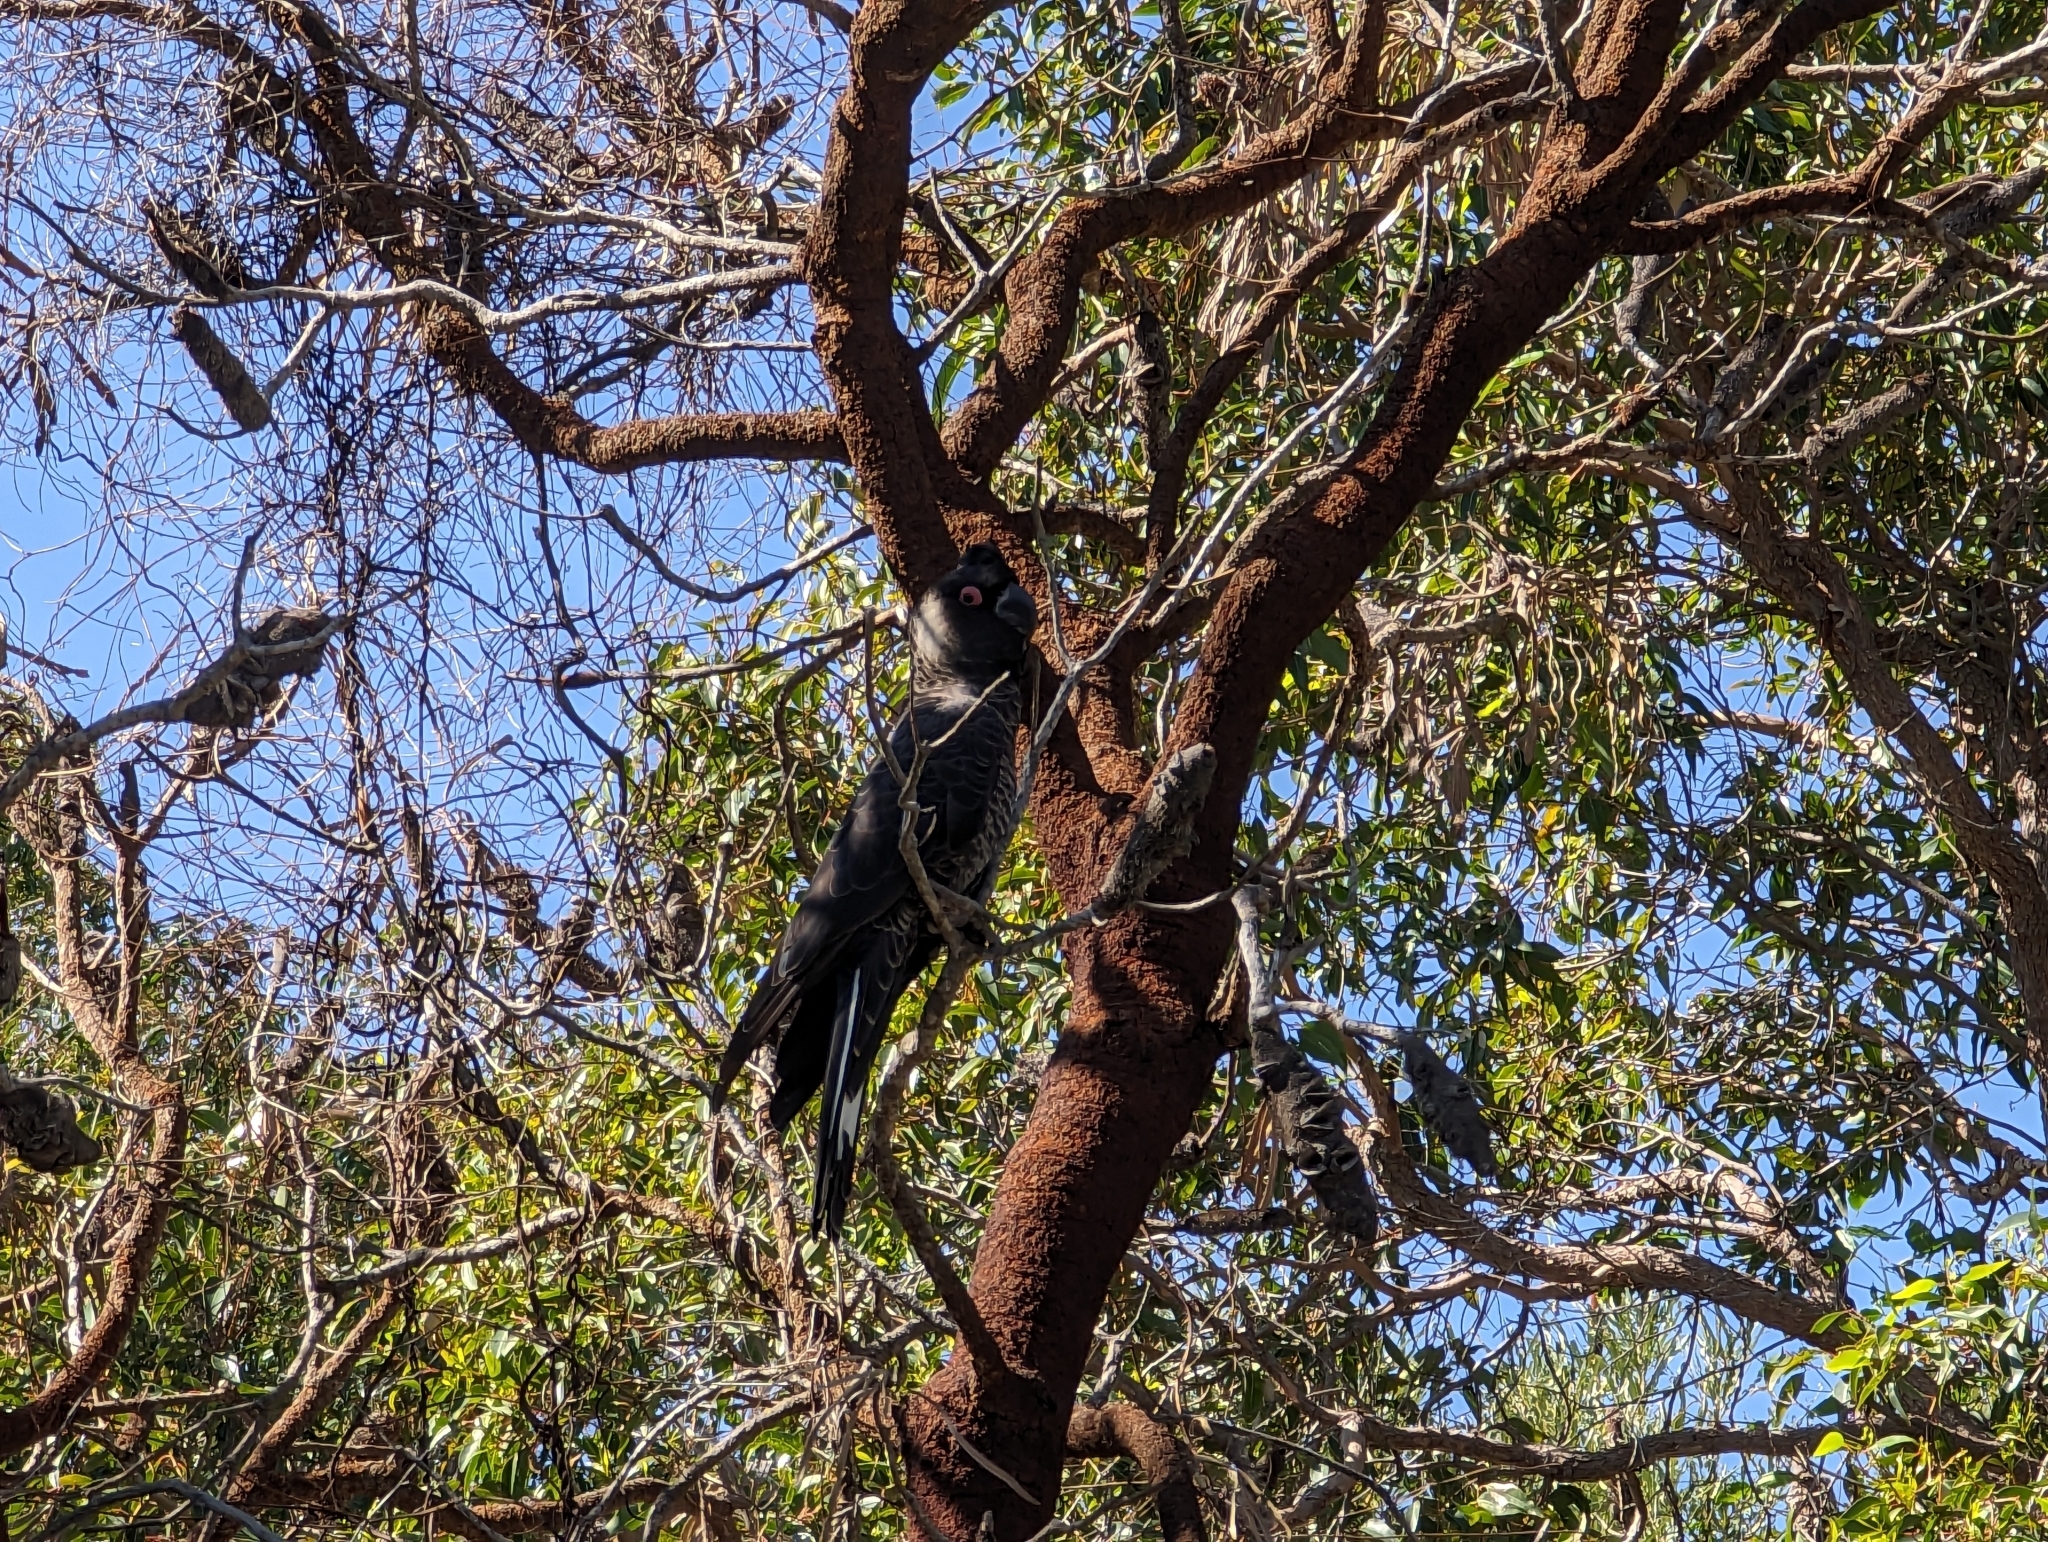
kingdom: Animalia
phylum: Chordata
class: Aves
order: Psittaciformes
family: Cacatuidae
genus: Zanda
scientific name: Zanda latirostris
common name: Short-billed black-cockatoo
